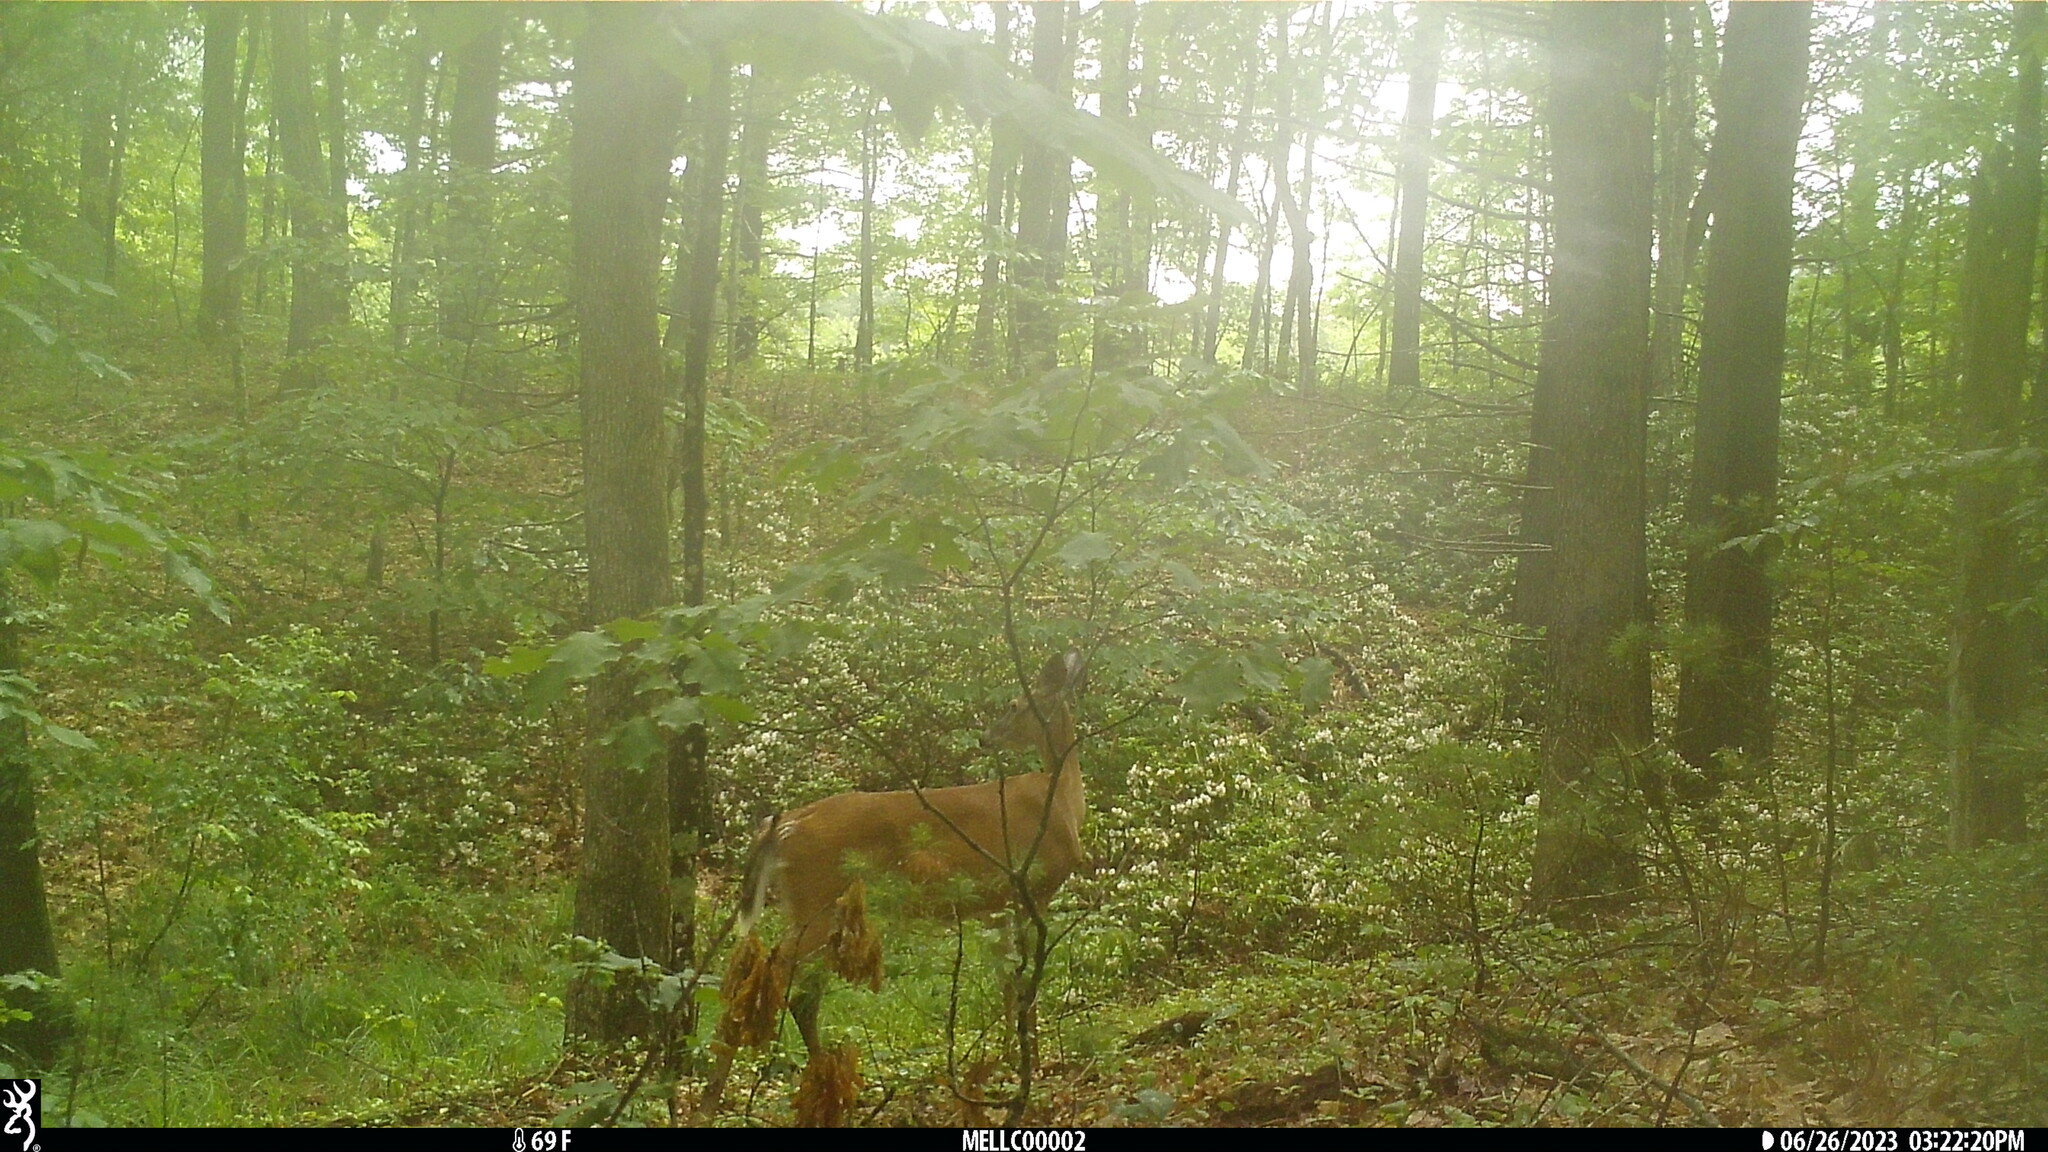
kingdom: Animalia
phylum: Chordata
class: Mammalia
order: Artiodactyla
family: Cervidae
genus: Odocoileus
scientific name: Odocoileus virginianus
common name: White-tailed deer
